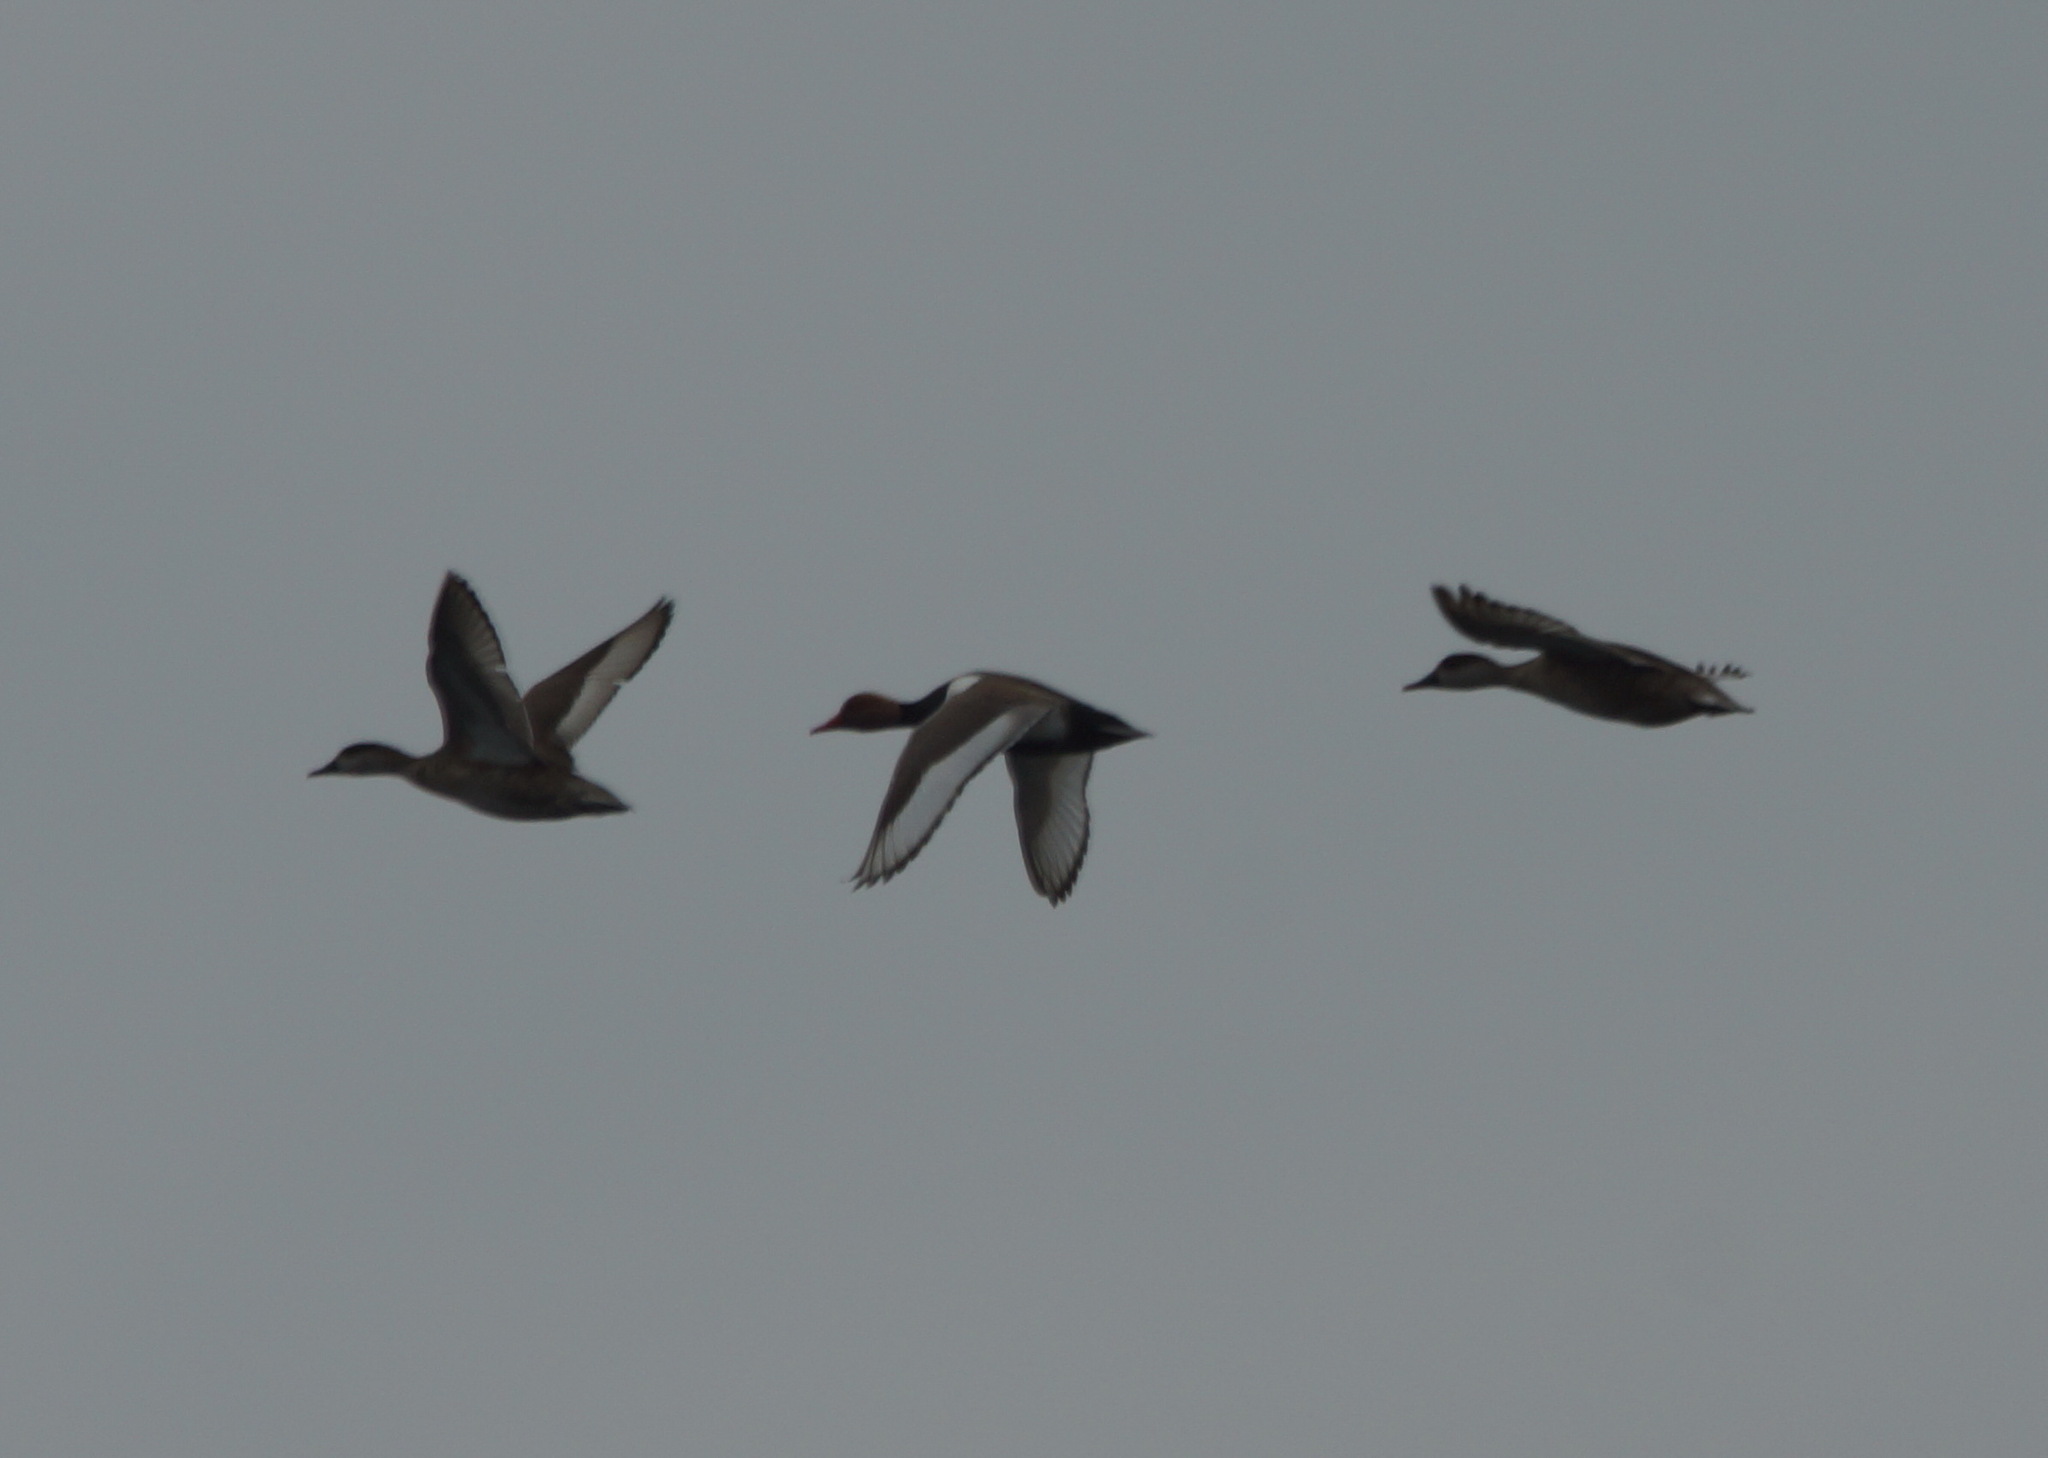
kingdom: Animalia
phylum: Chordata
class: Aves
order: Anseriformes
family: Anatidae
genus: Netta
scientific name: Netta rufina
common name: Red-crested pochard
